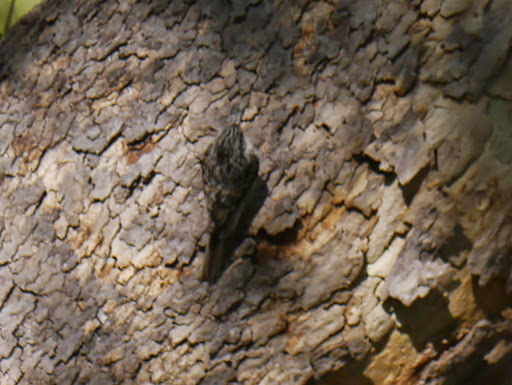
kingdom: Animalia
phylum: Chordata
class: Aves
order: Passeriformes
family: Certhiidae
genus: Certhia
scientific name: Certhia americana
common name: Brown creeper
